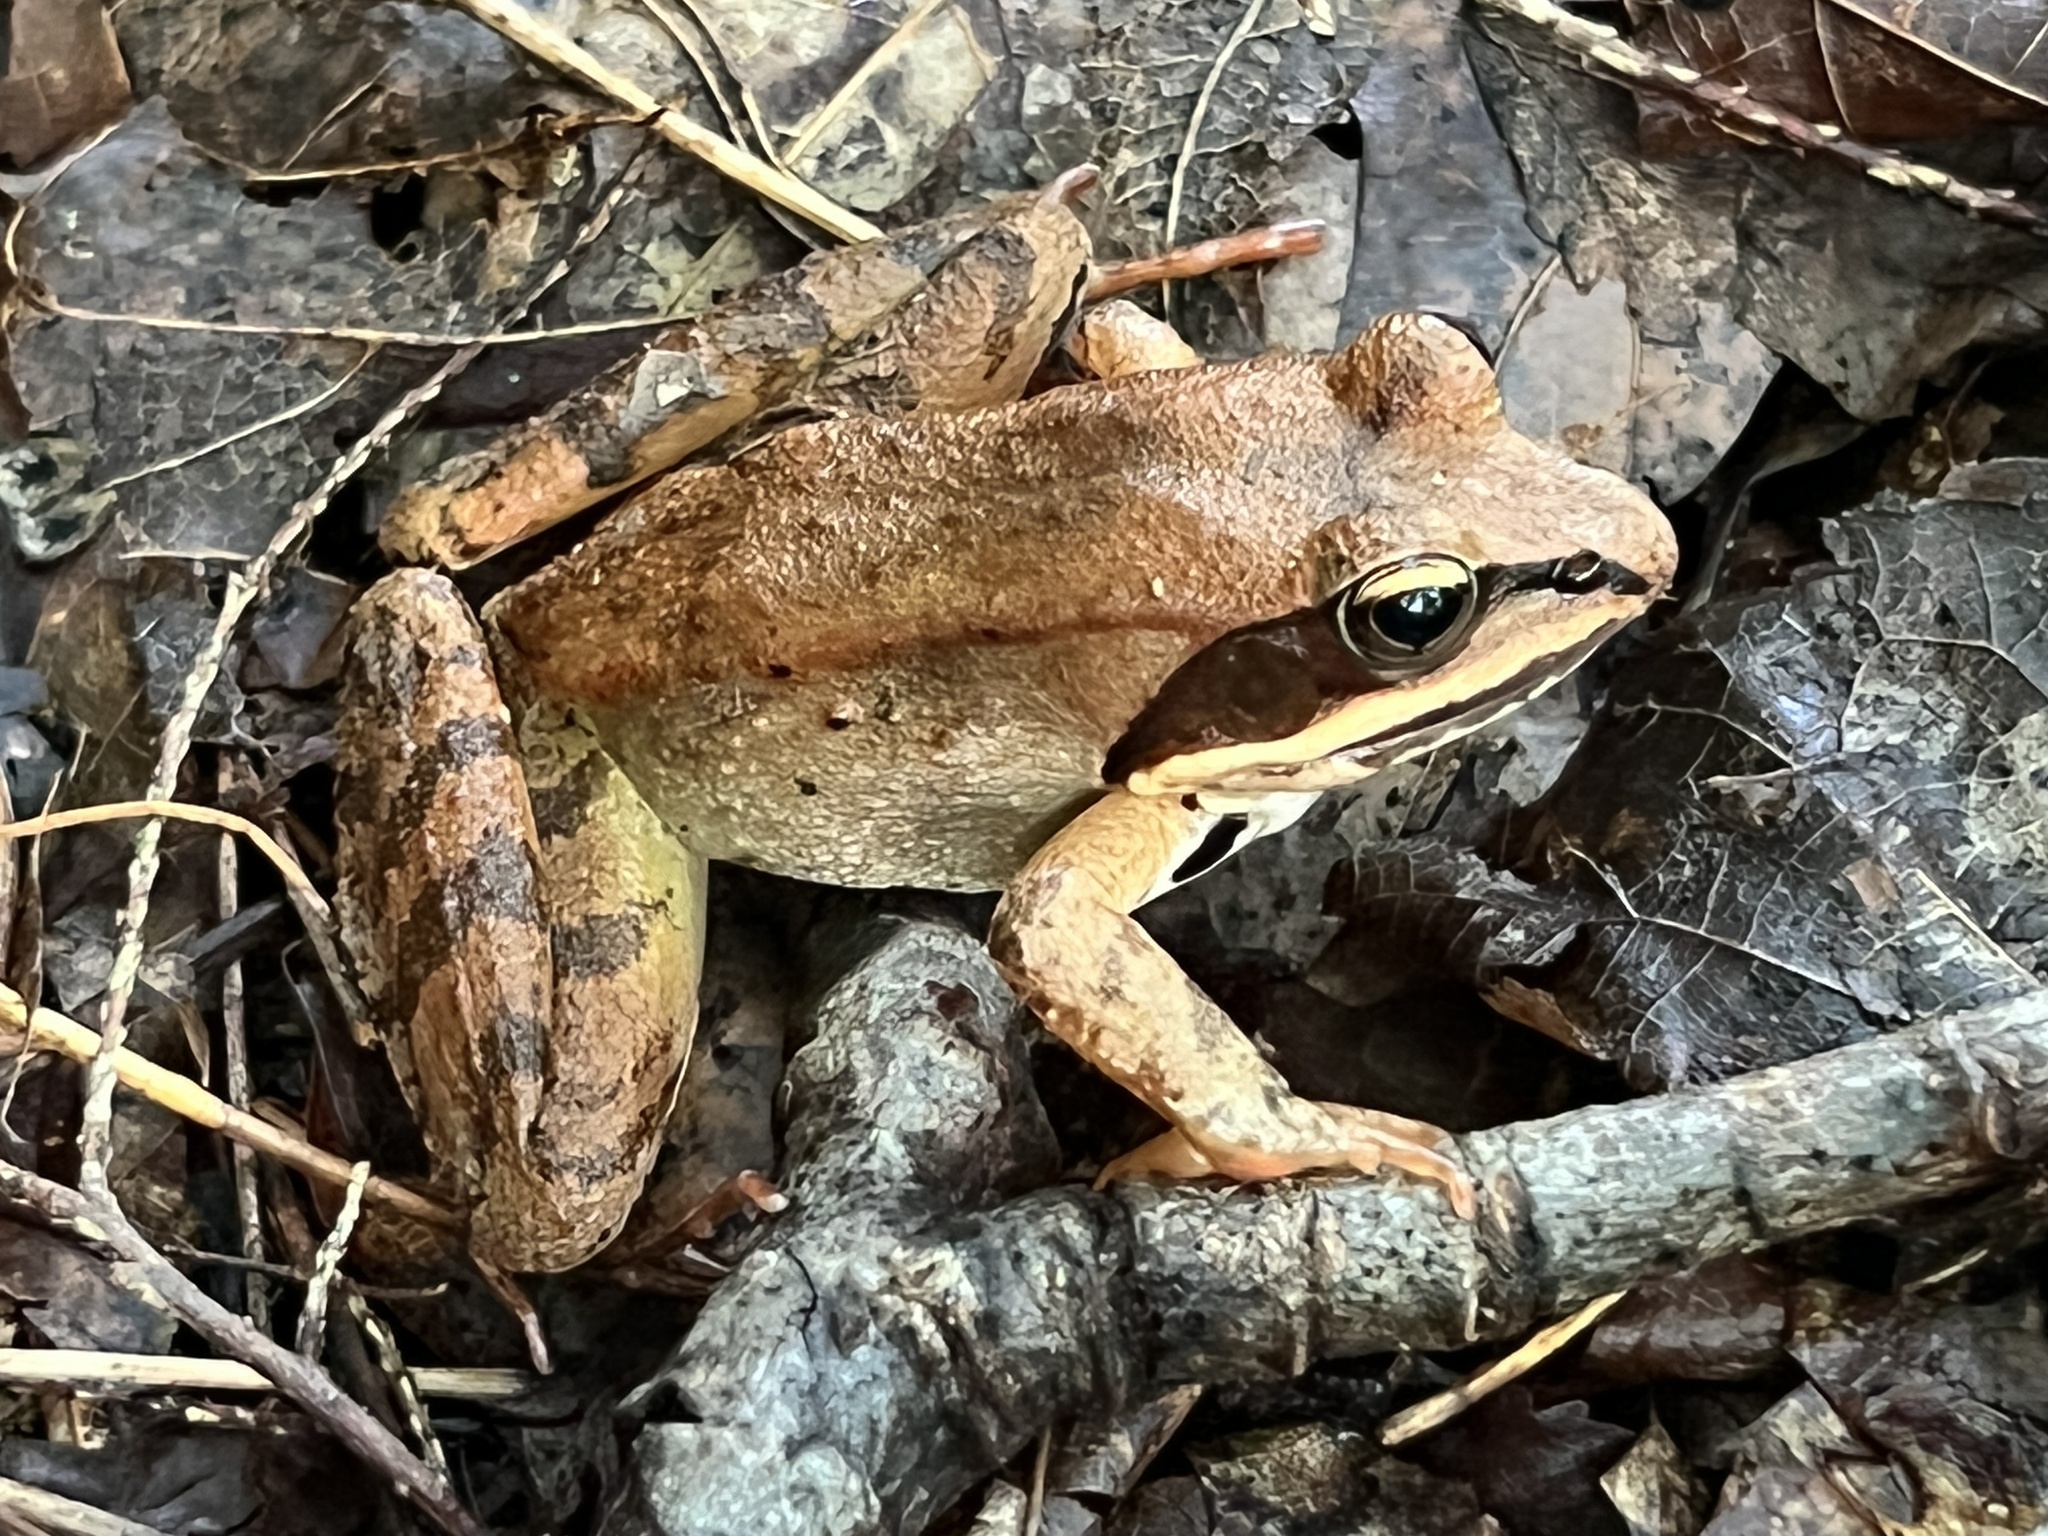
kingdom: Animalia
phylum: Chordata
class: Amphibia
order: Anura
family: Ranidae
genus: Lithobates
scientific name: Lithobates sylvaticus
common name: Wood frog
